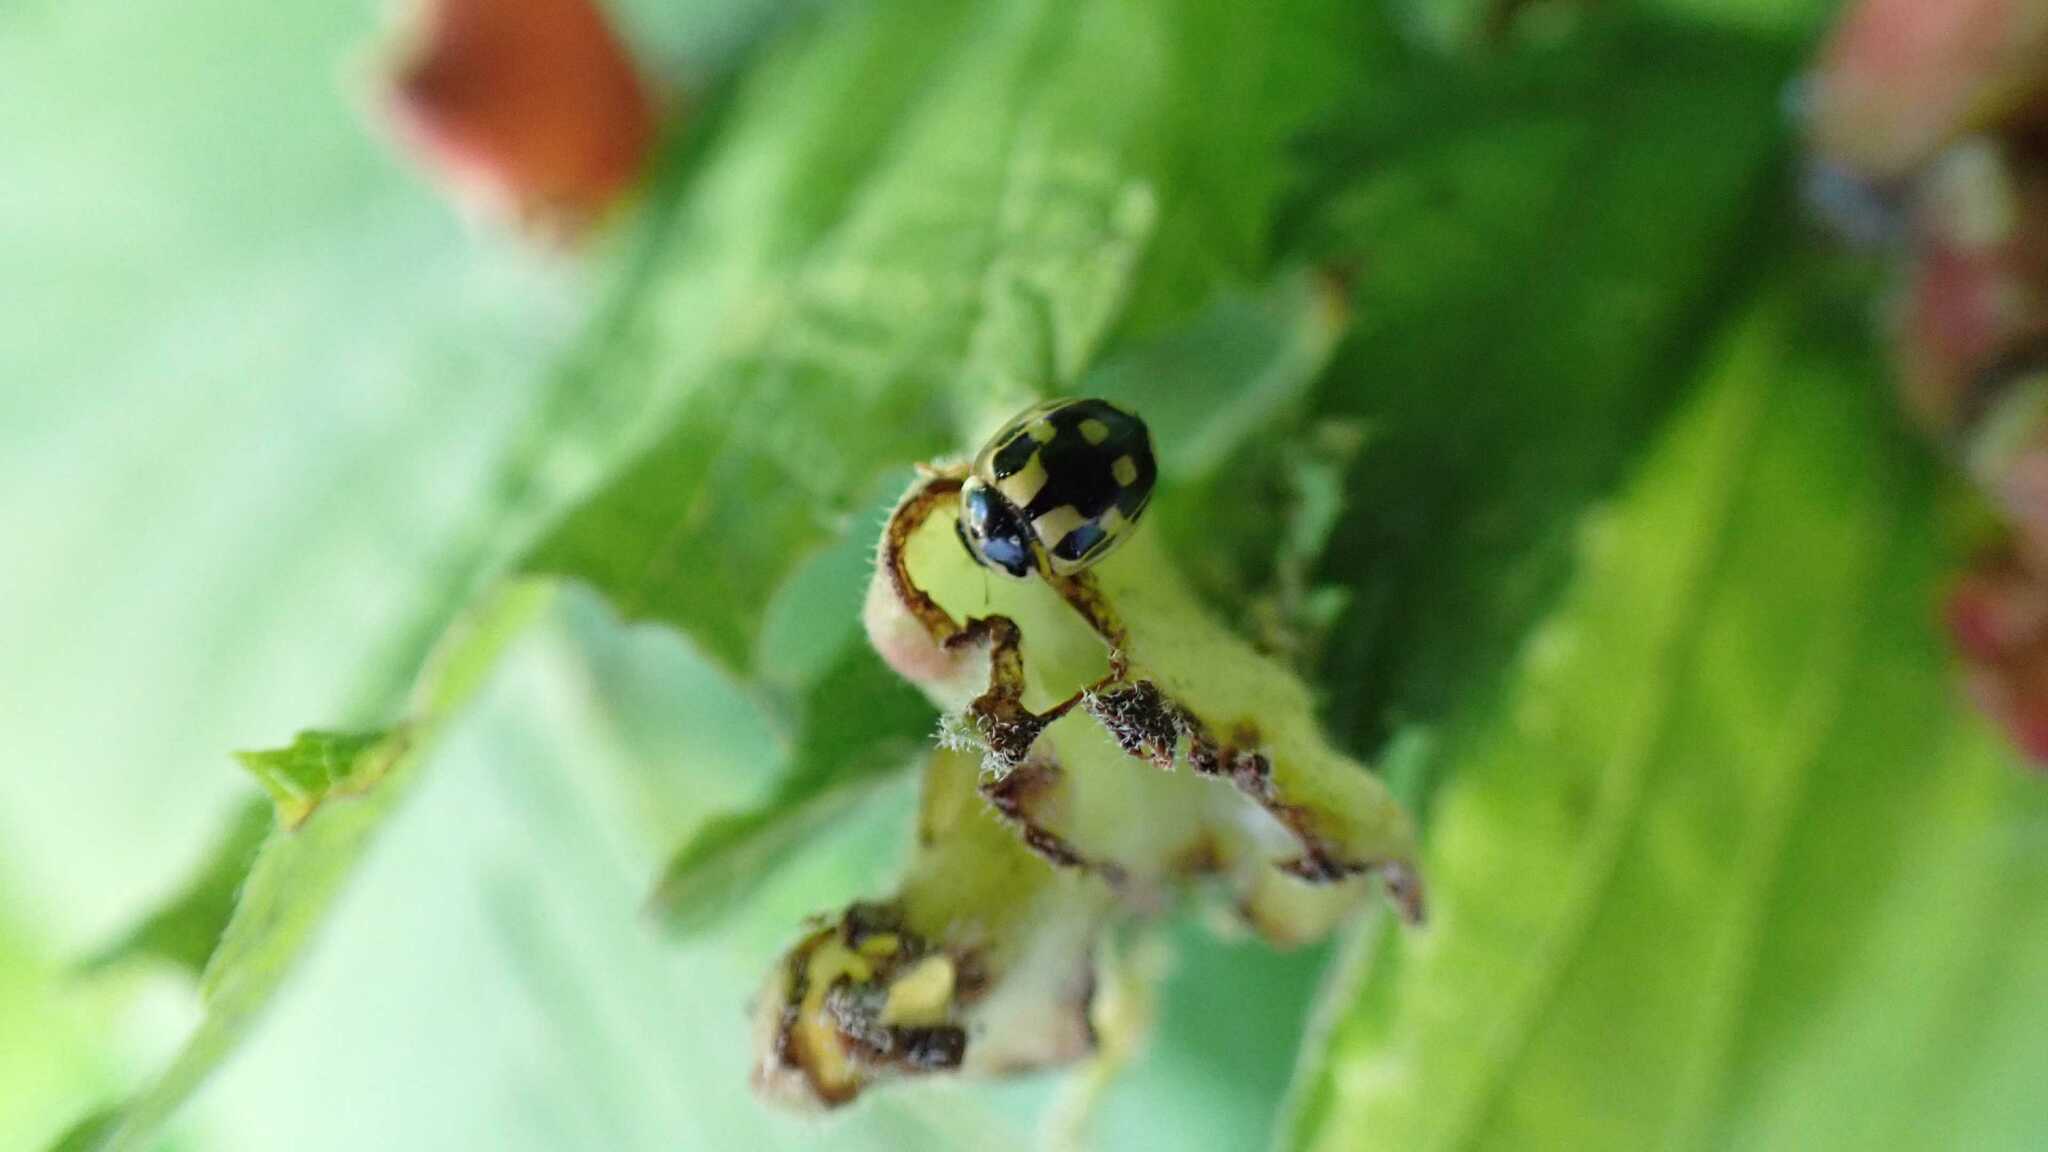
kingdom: Animalia
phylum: Arthropoda
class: Insecta
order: Coleoptera
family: Coccinellidae
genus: Propylaea
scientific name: Propylaea quatuordecimpunctata
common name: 14-spotted ladybird beetle
